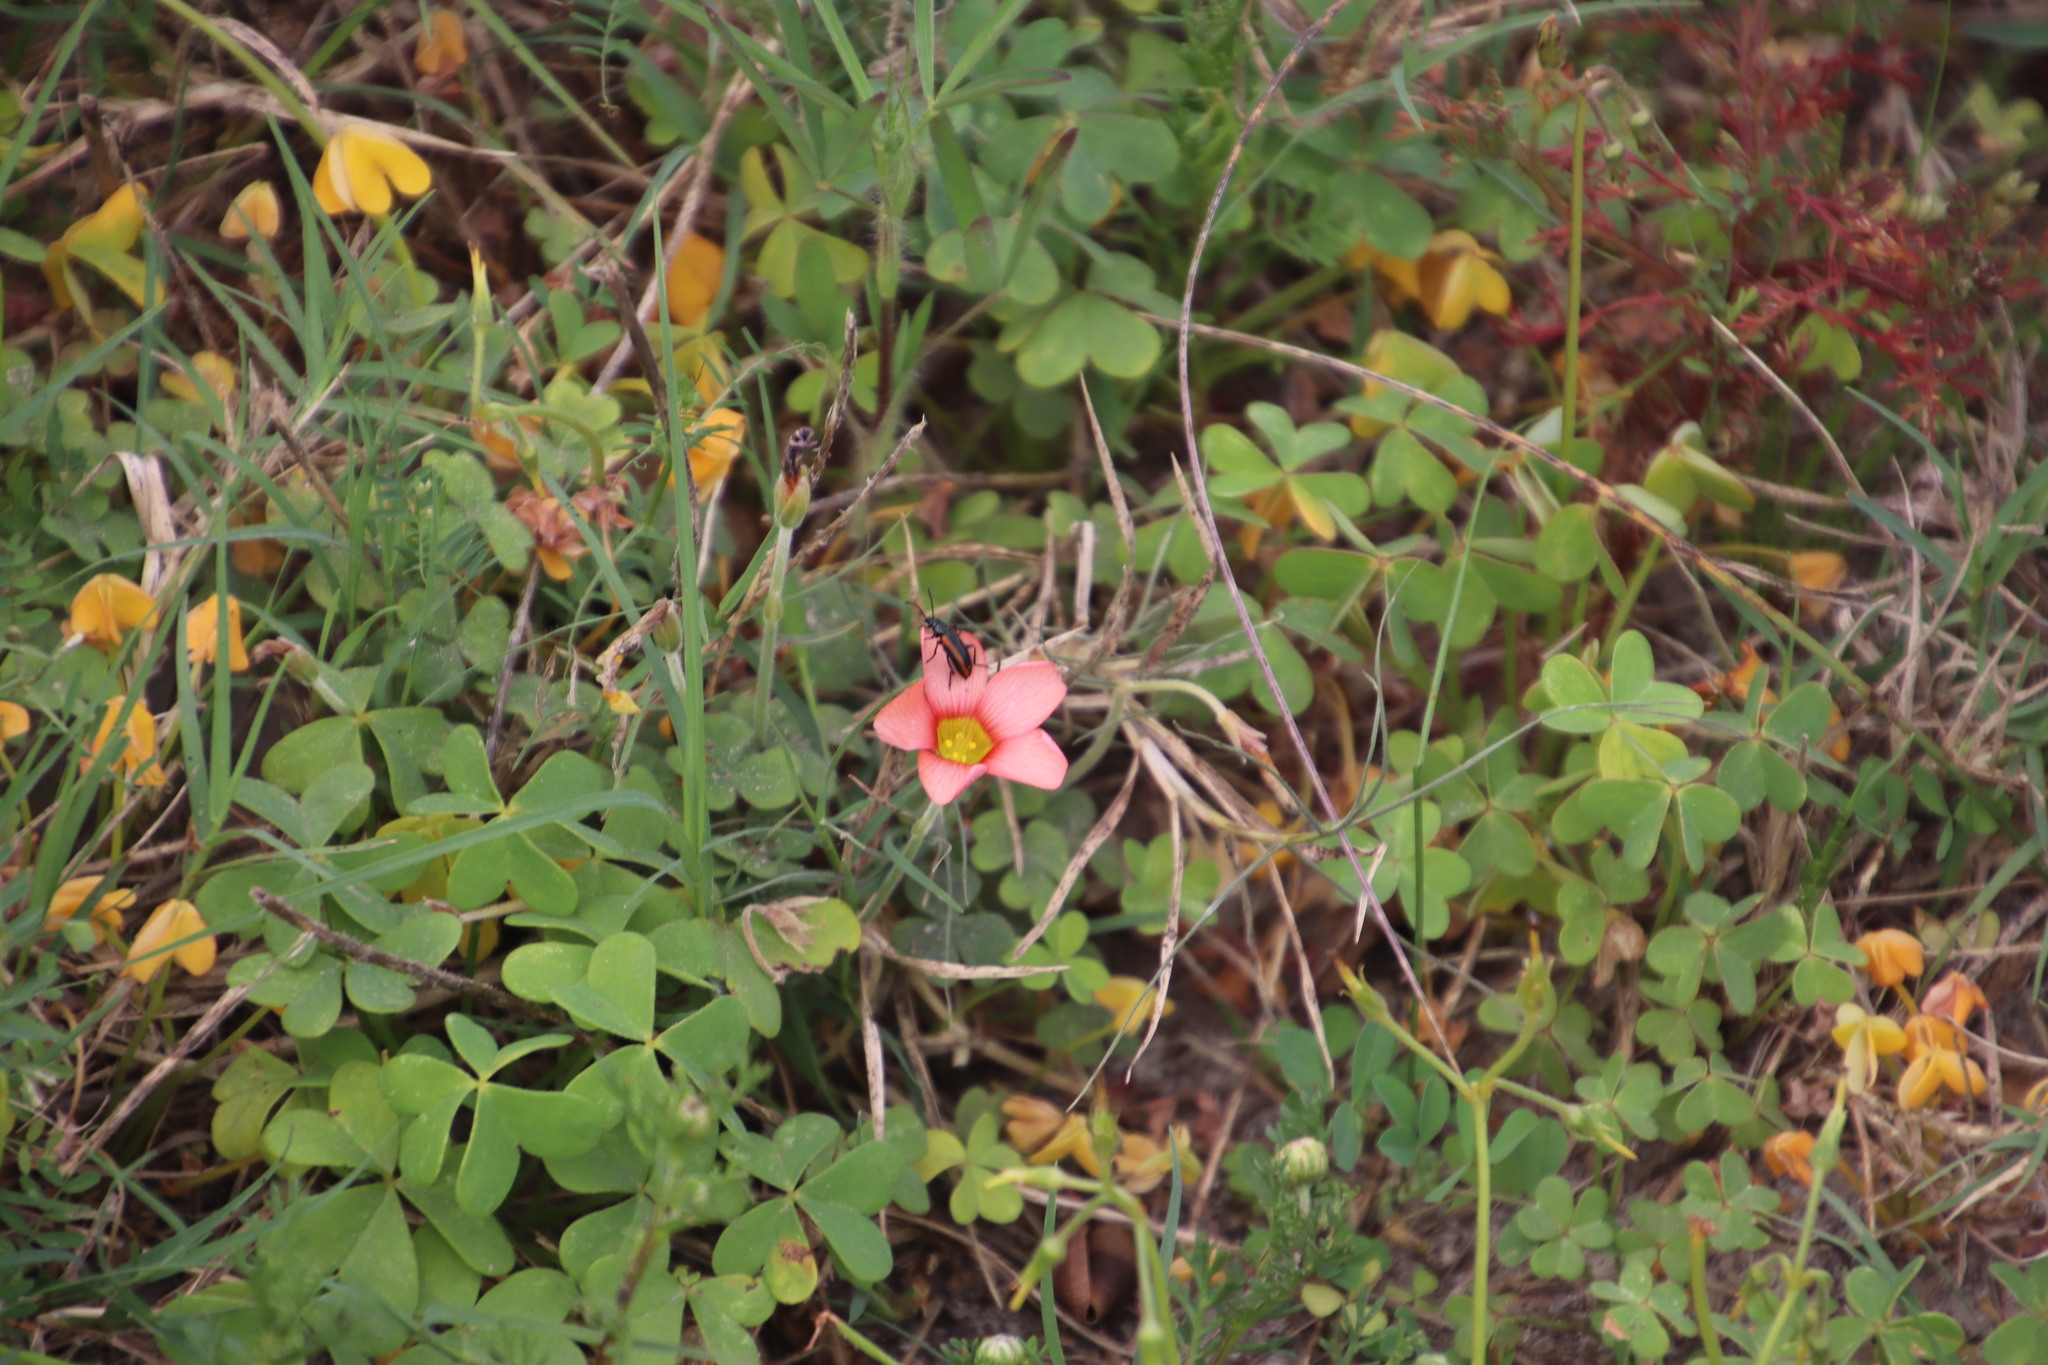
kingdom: Plantae
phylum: Tracheophyta
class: Magnoliopsida
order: Oxalidales
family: Oxalidaceae
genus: Oxalis
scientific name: Oxalis obtusa
